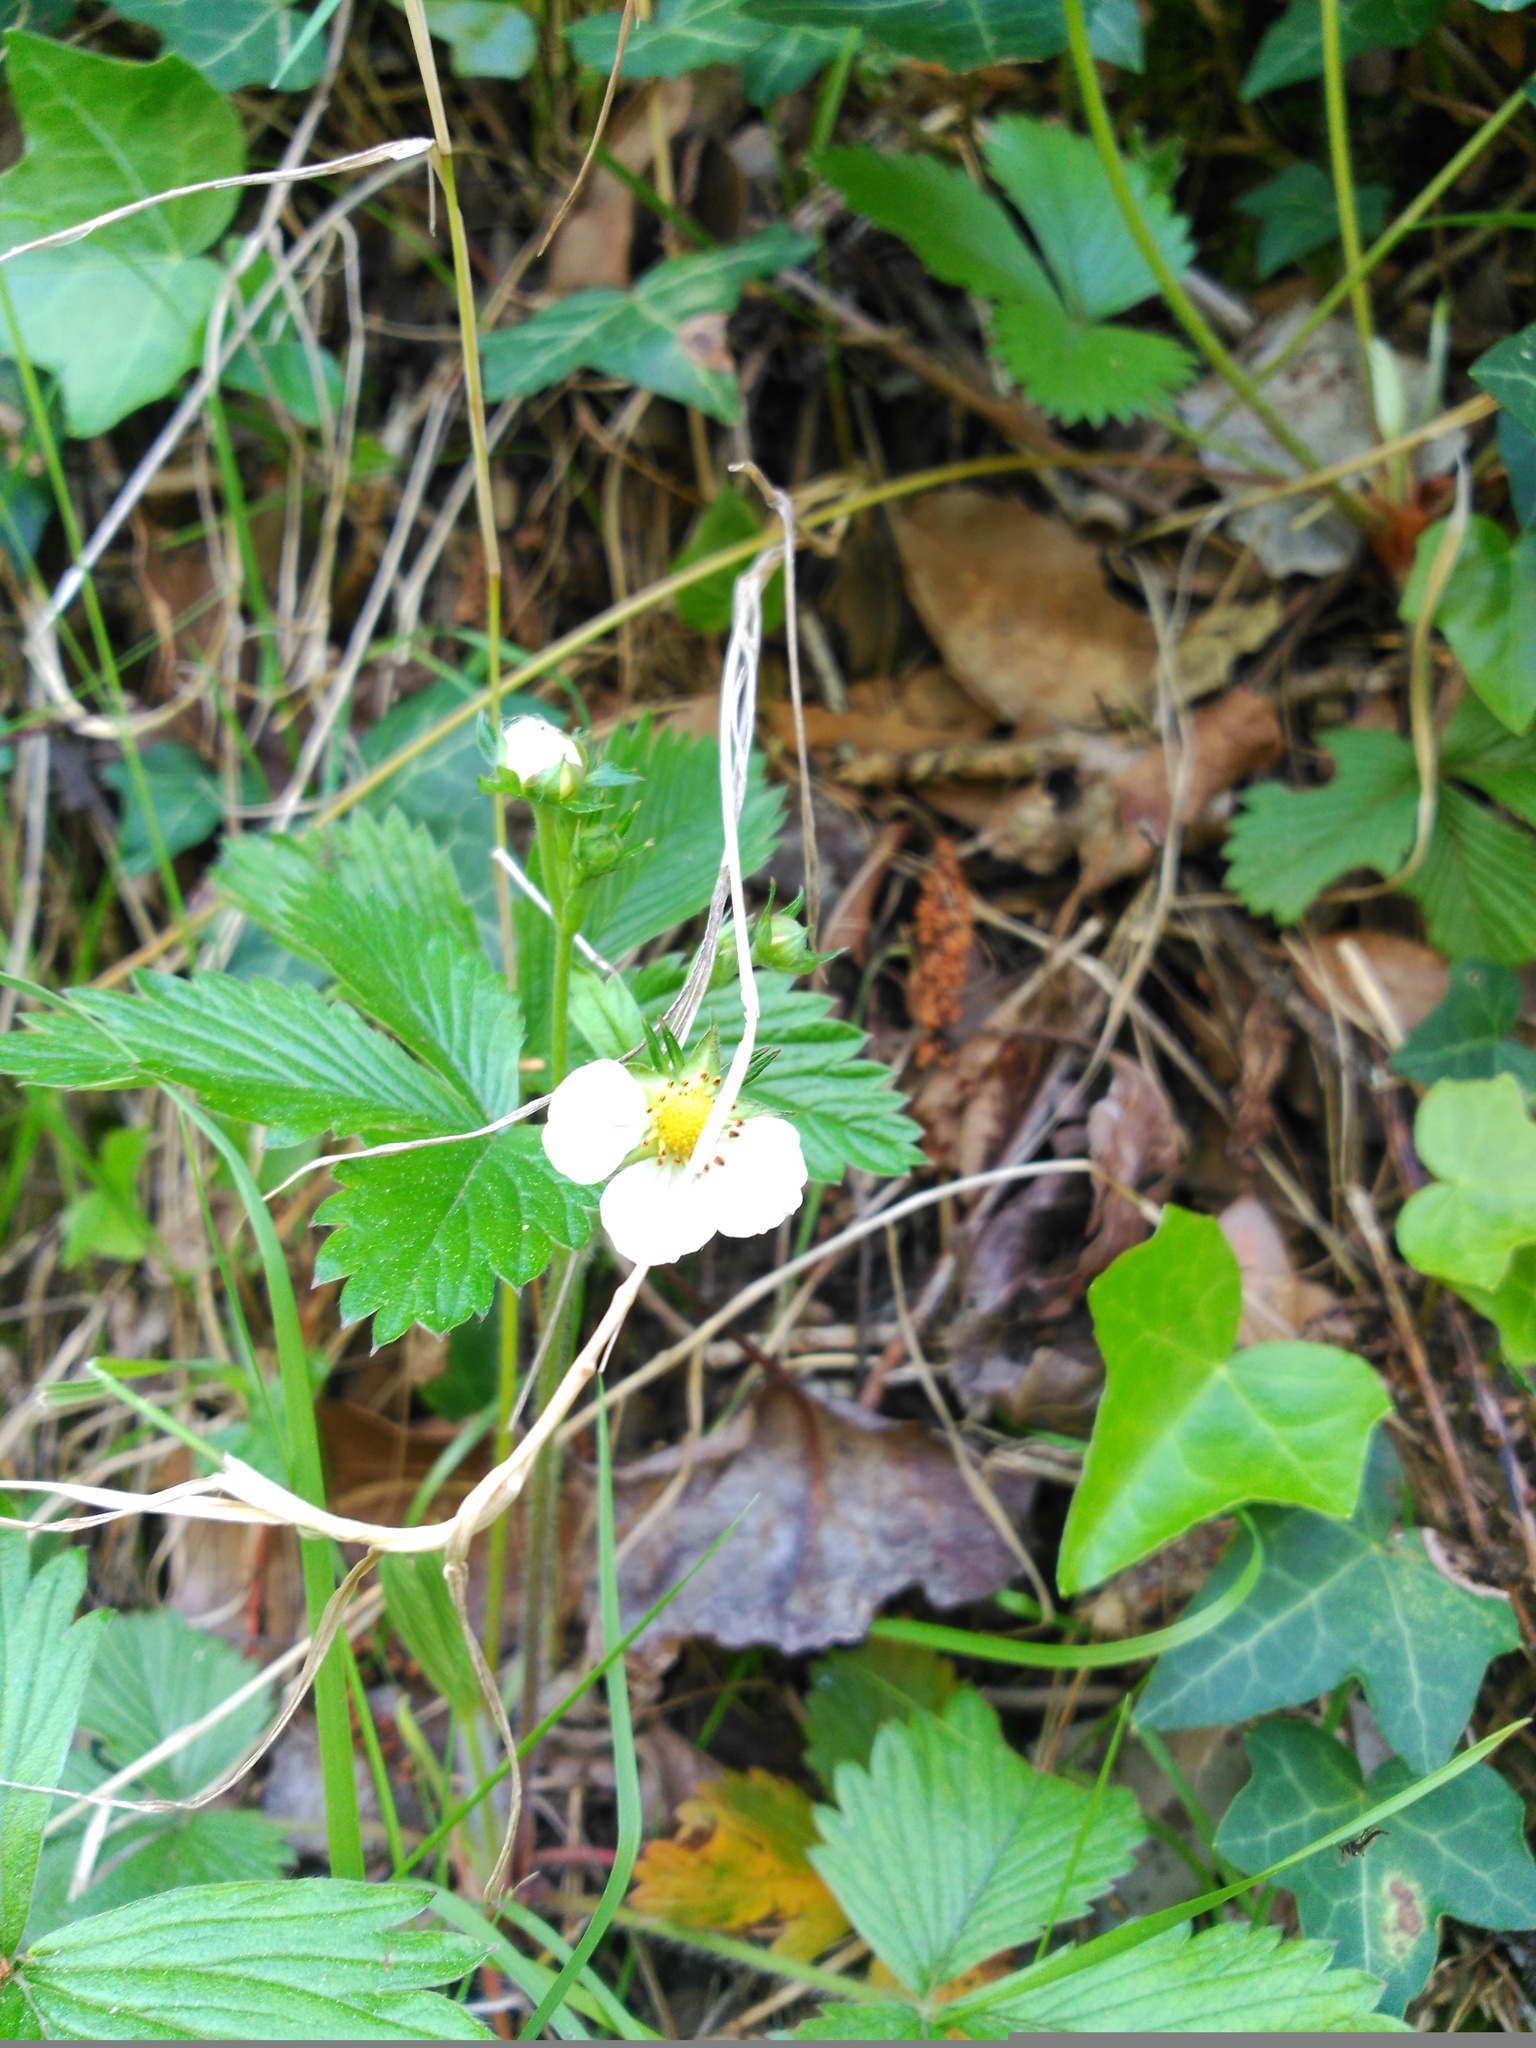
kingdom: Plantae
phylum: Tracheophyta
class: Magnoliopsida
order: Rosales
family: Rosaceae
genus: Fragaria
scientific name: Fragaria vesca
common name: Wild strawberry
